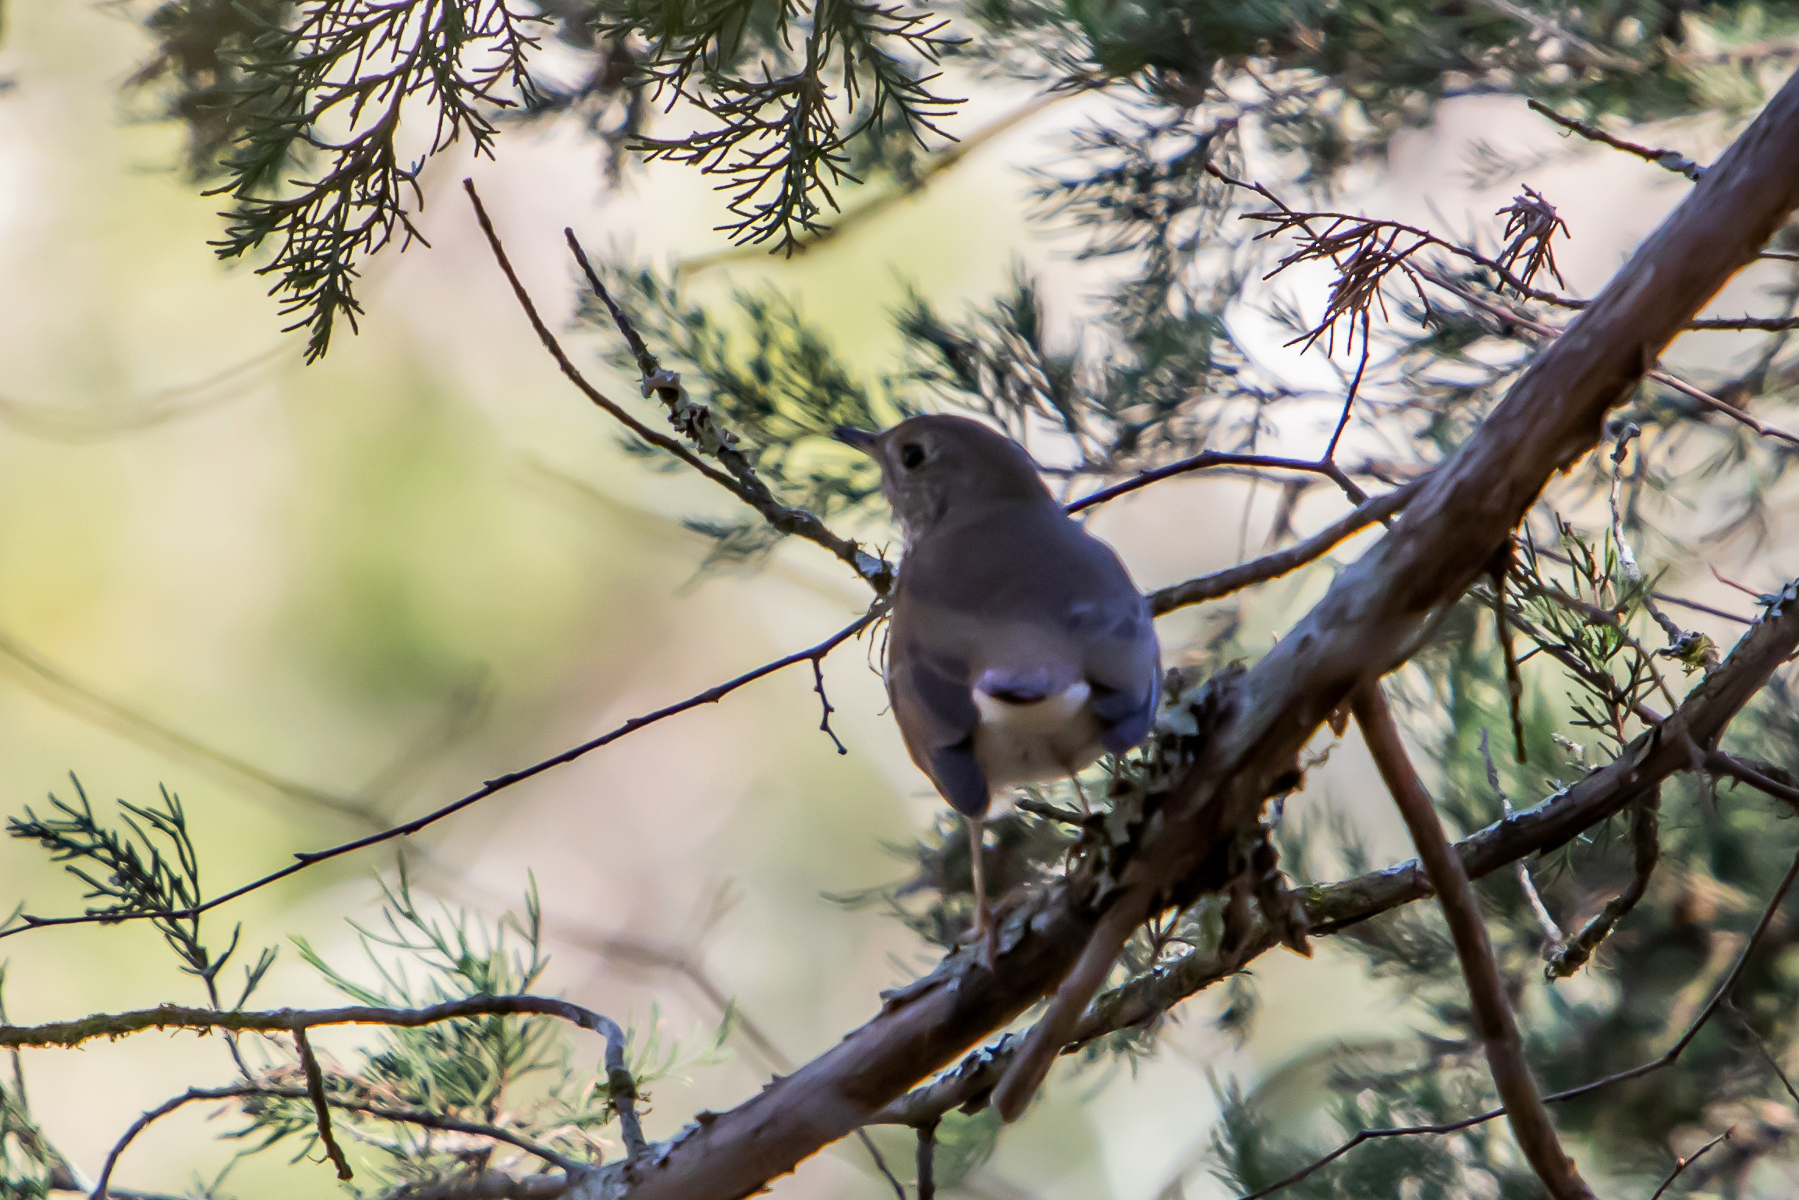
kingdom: Animalia
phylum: Chordata
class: Aves
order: Passeriformes
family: Turdidae
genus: Catharus
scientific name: Catharus guttatus
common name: Hermit thrush
